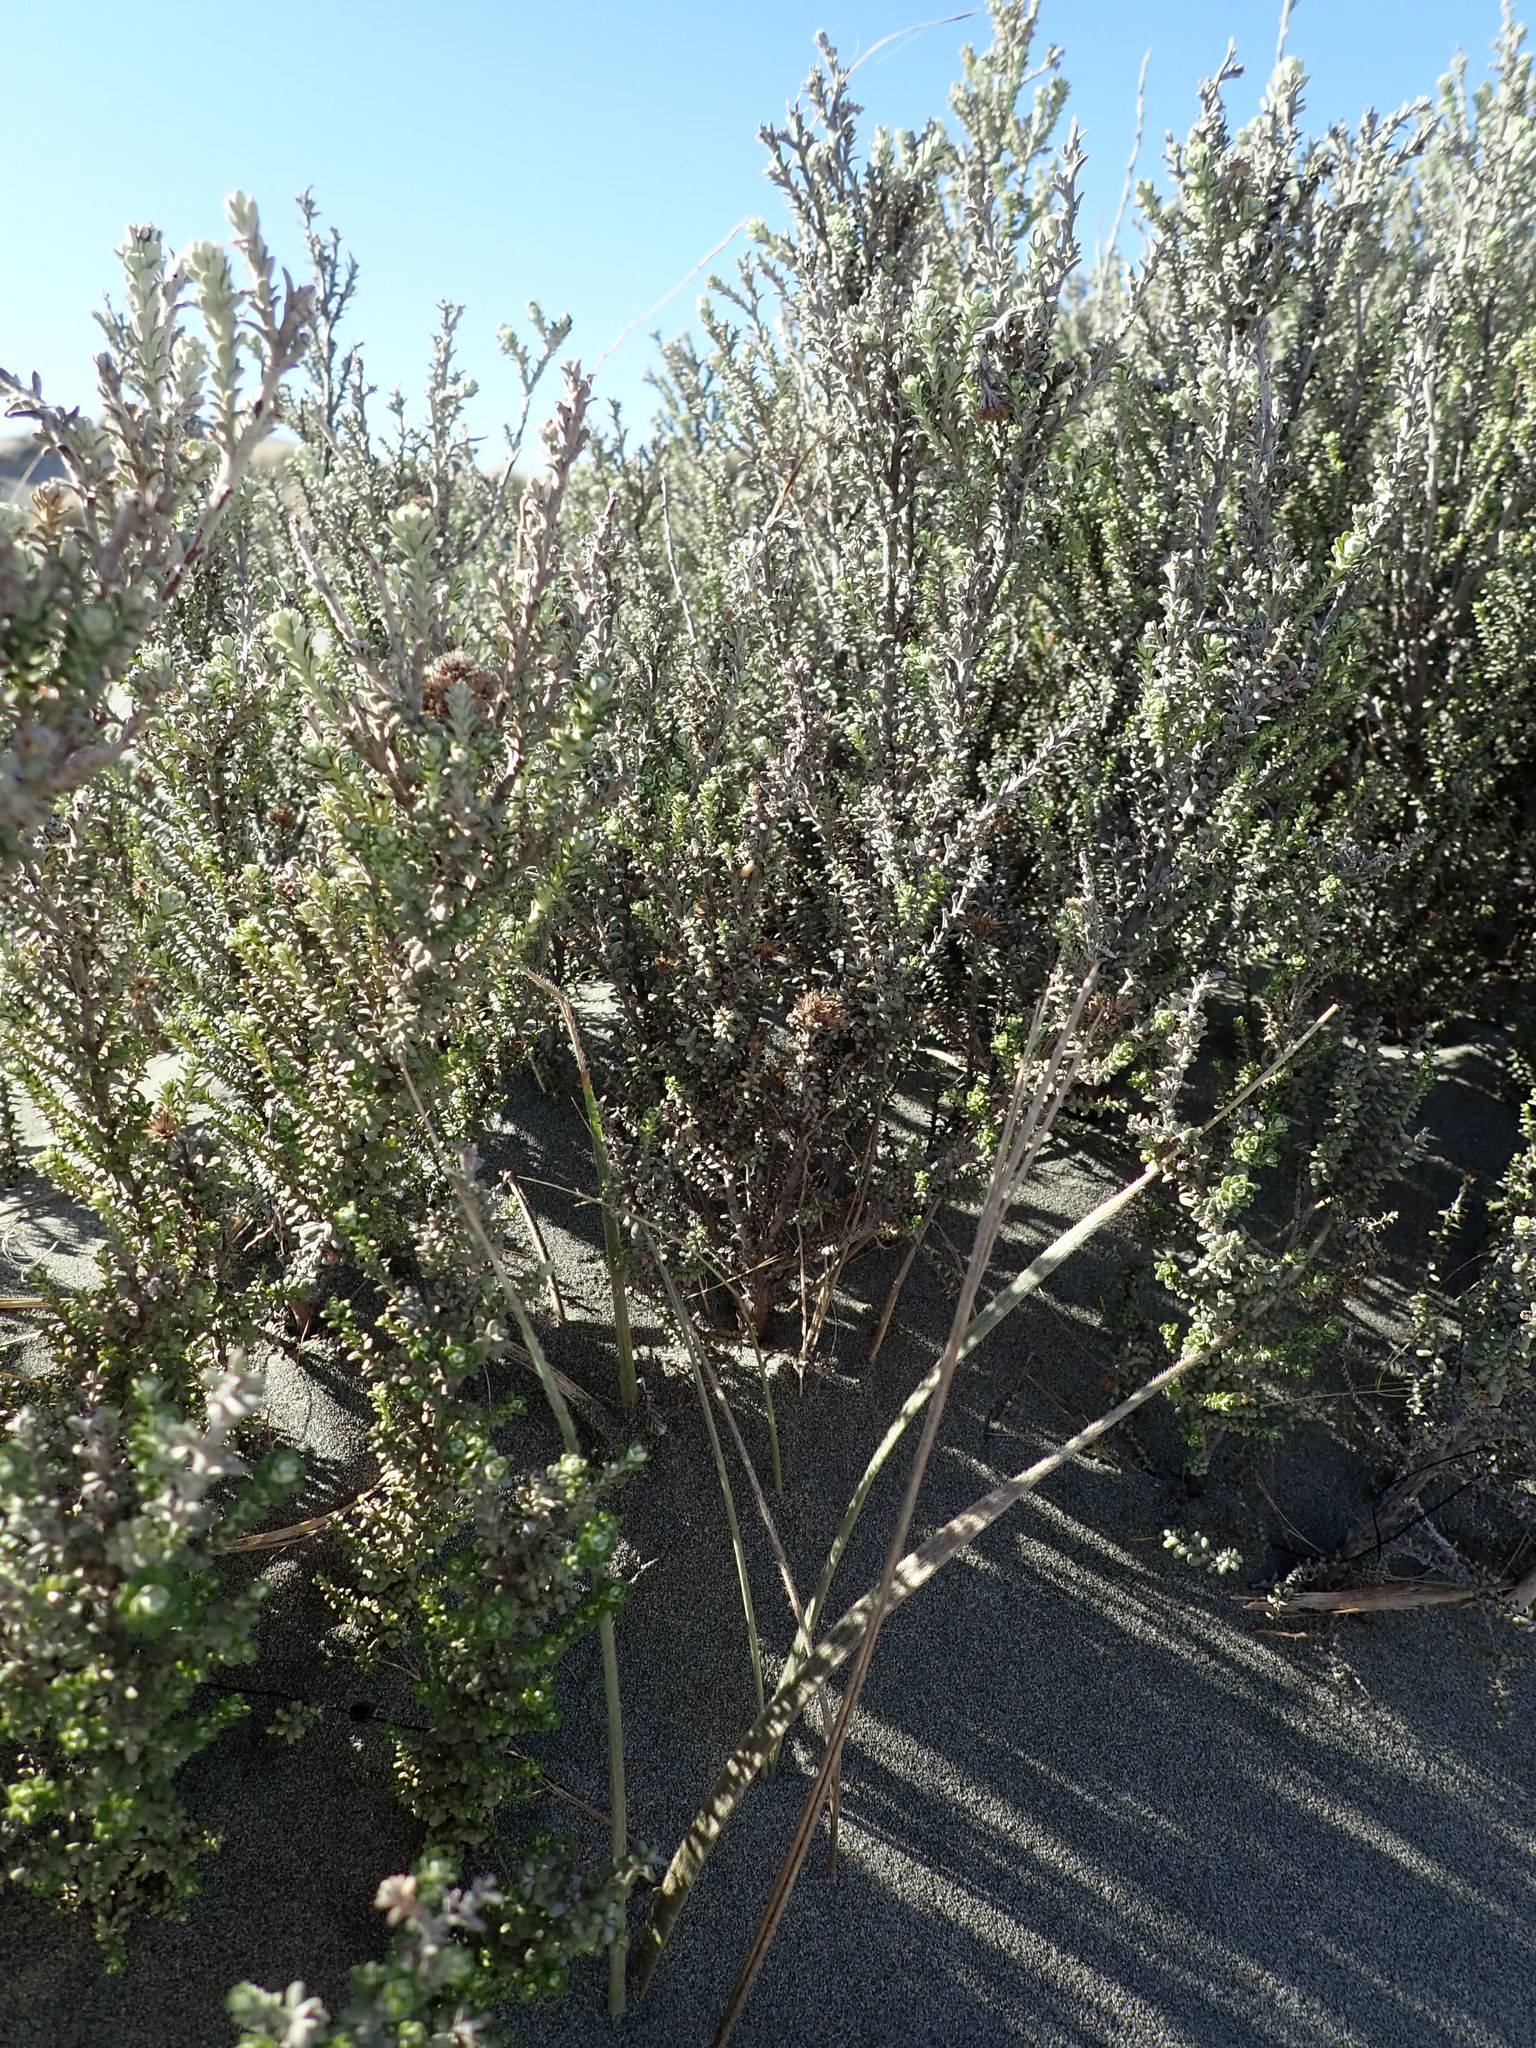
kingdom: Plantae
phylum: Tracheophyta
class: Magnoliopsida
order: Asterales
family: Asteraceae
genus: Ozothamnus
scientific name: Ozothamnus leptophyllus
